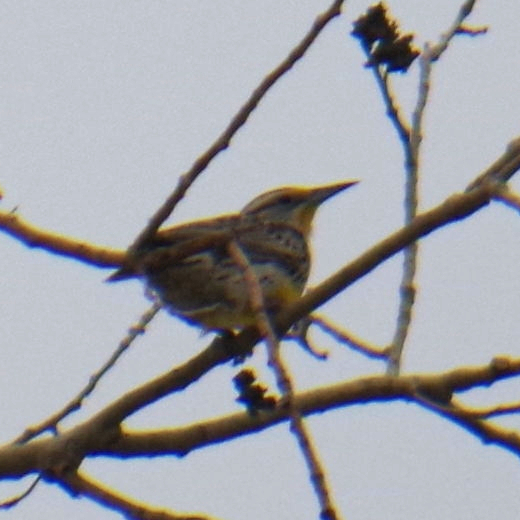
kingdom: Animalia
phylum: Chordata
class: Aves
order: Passeriformes
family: Icteridae
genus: Sturnella
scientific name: Sturnella neglecta
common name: Western meadowlark
